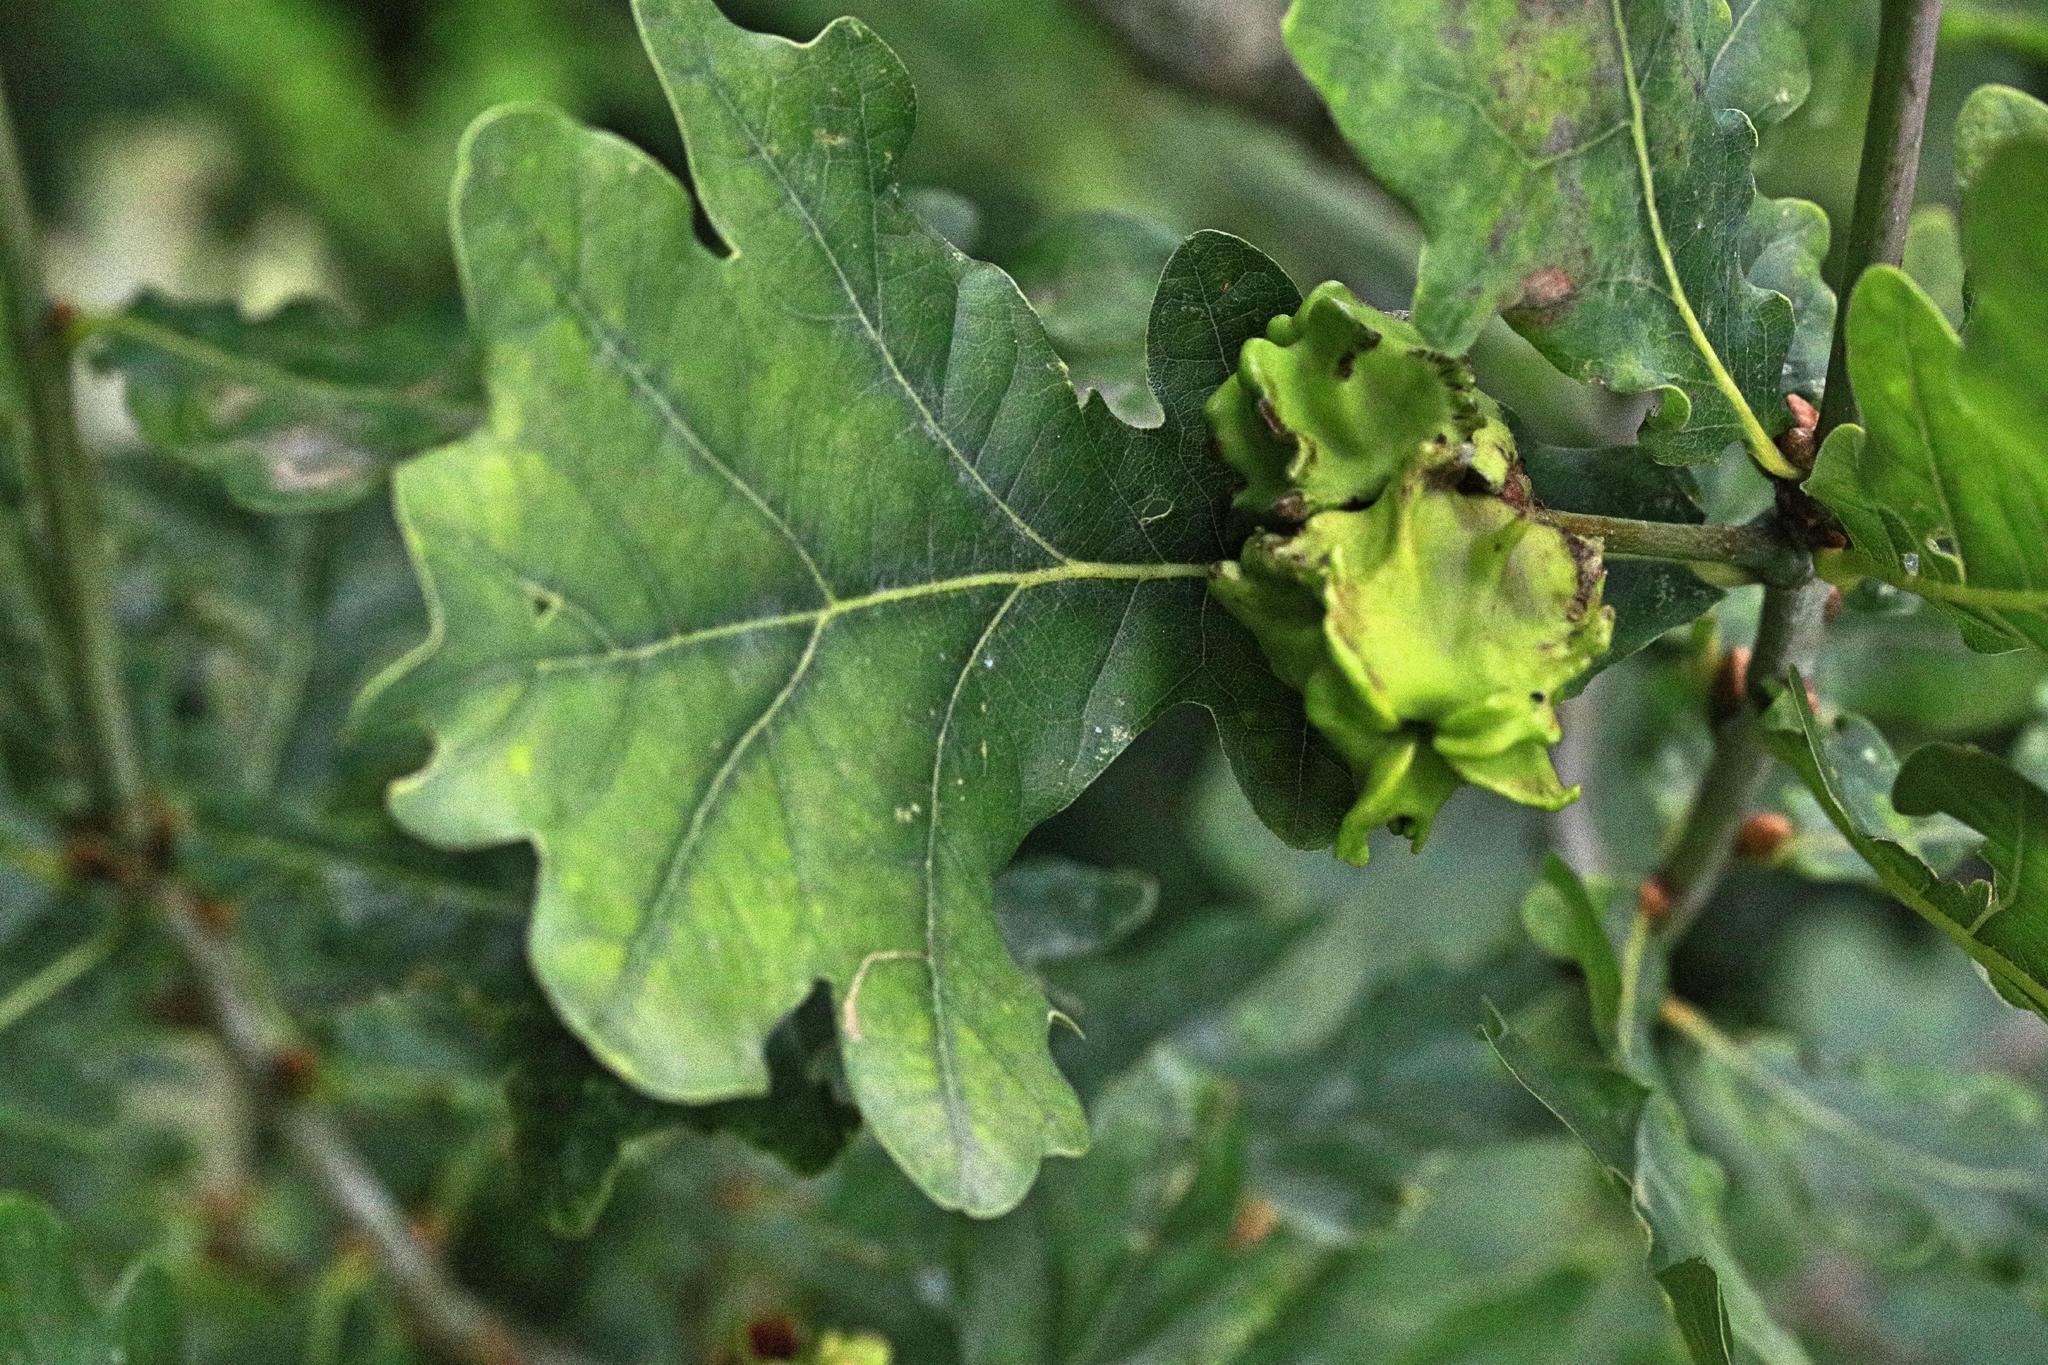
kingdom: Animalia
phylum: Arthropoda
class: Insecta
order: Hymenoptera
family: Cynipidae
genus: Andricus
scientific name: Andricus quercuscalicis
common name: Knopper gall
